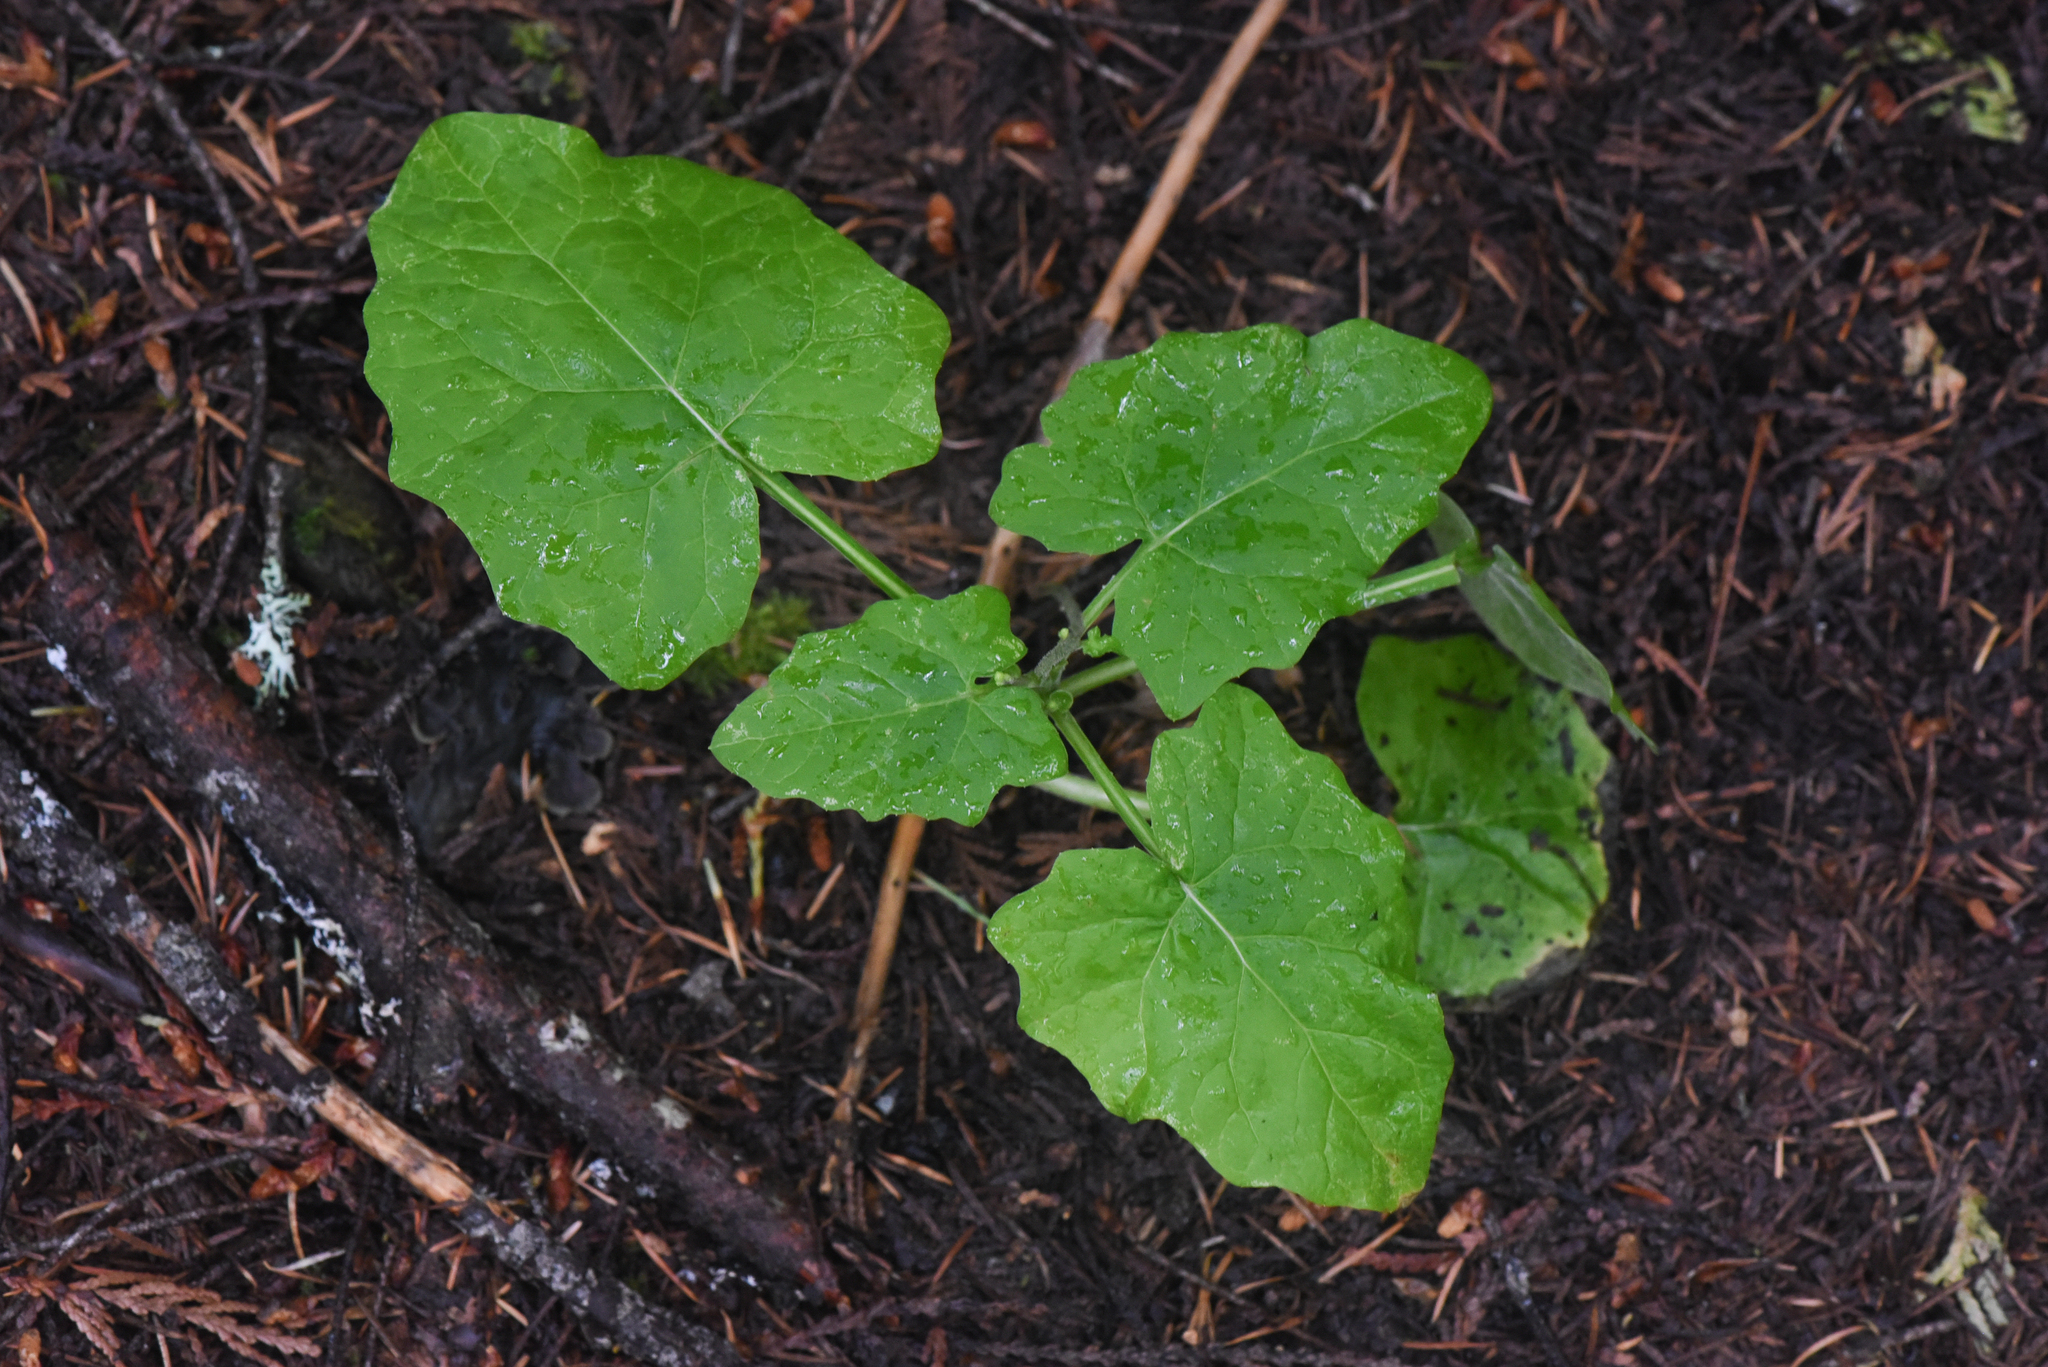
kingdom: Plantae
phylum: Tracheophyta
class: Magnoliopsida
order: Asterales
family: Asteraceae
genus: Adenocaulon
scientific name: Adenocaulon bicolor
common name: Trailplant
